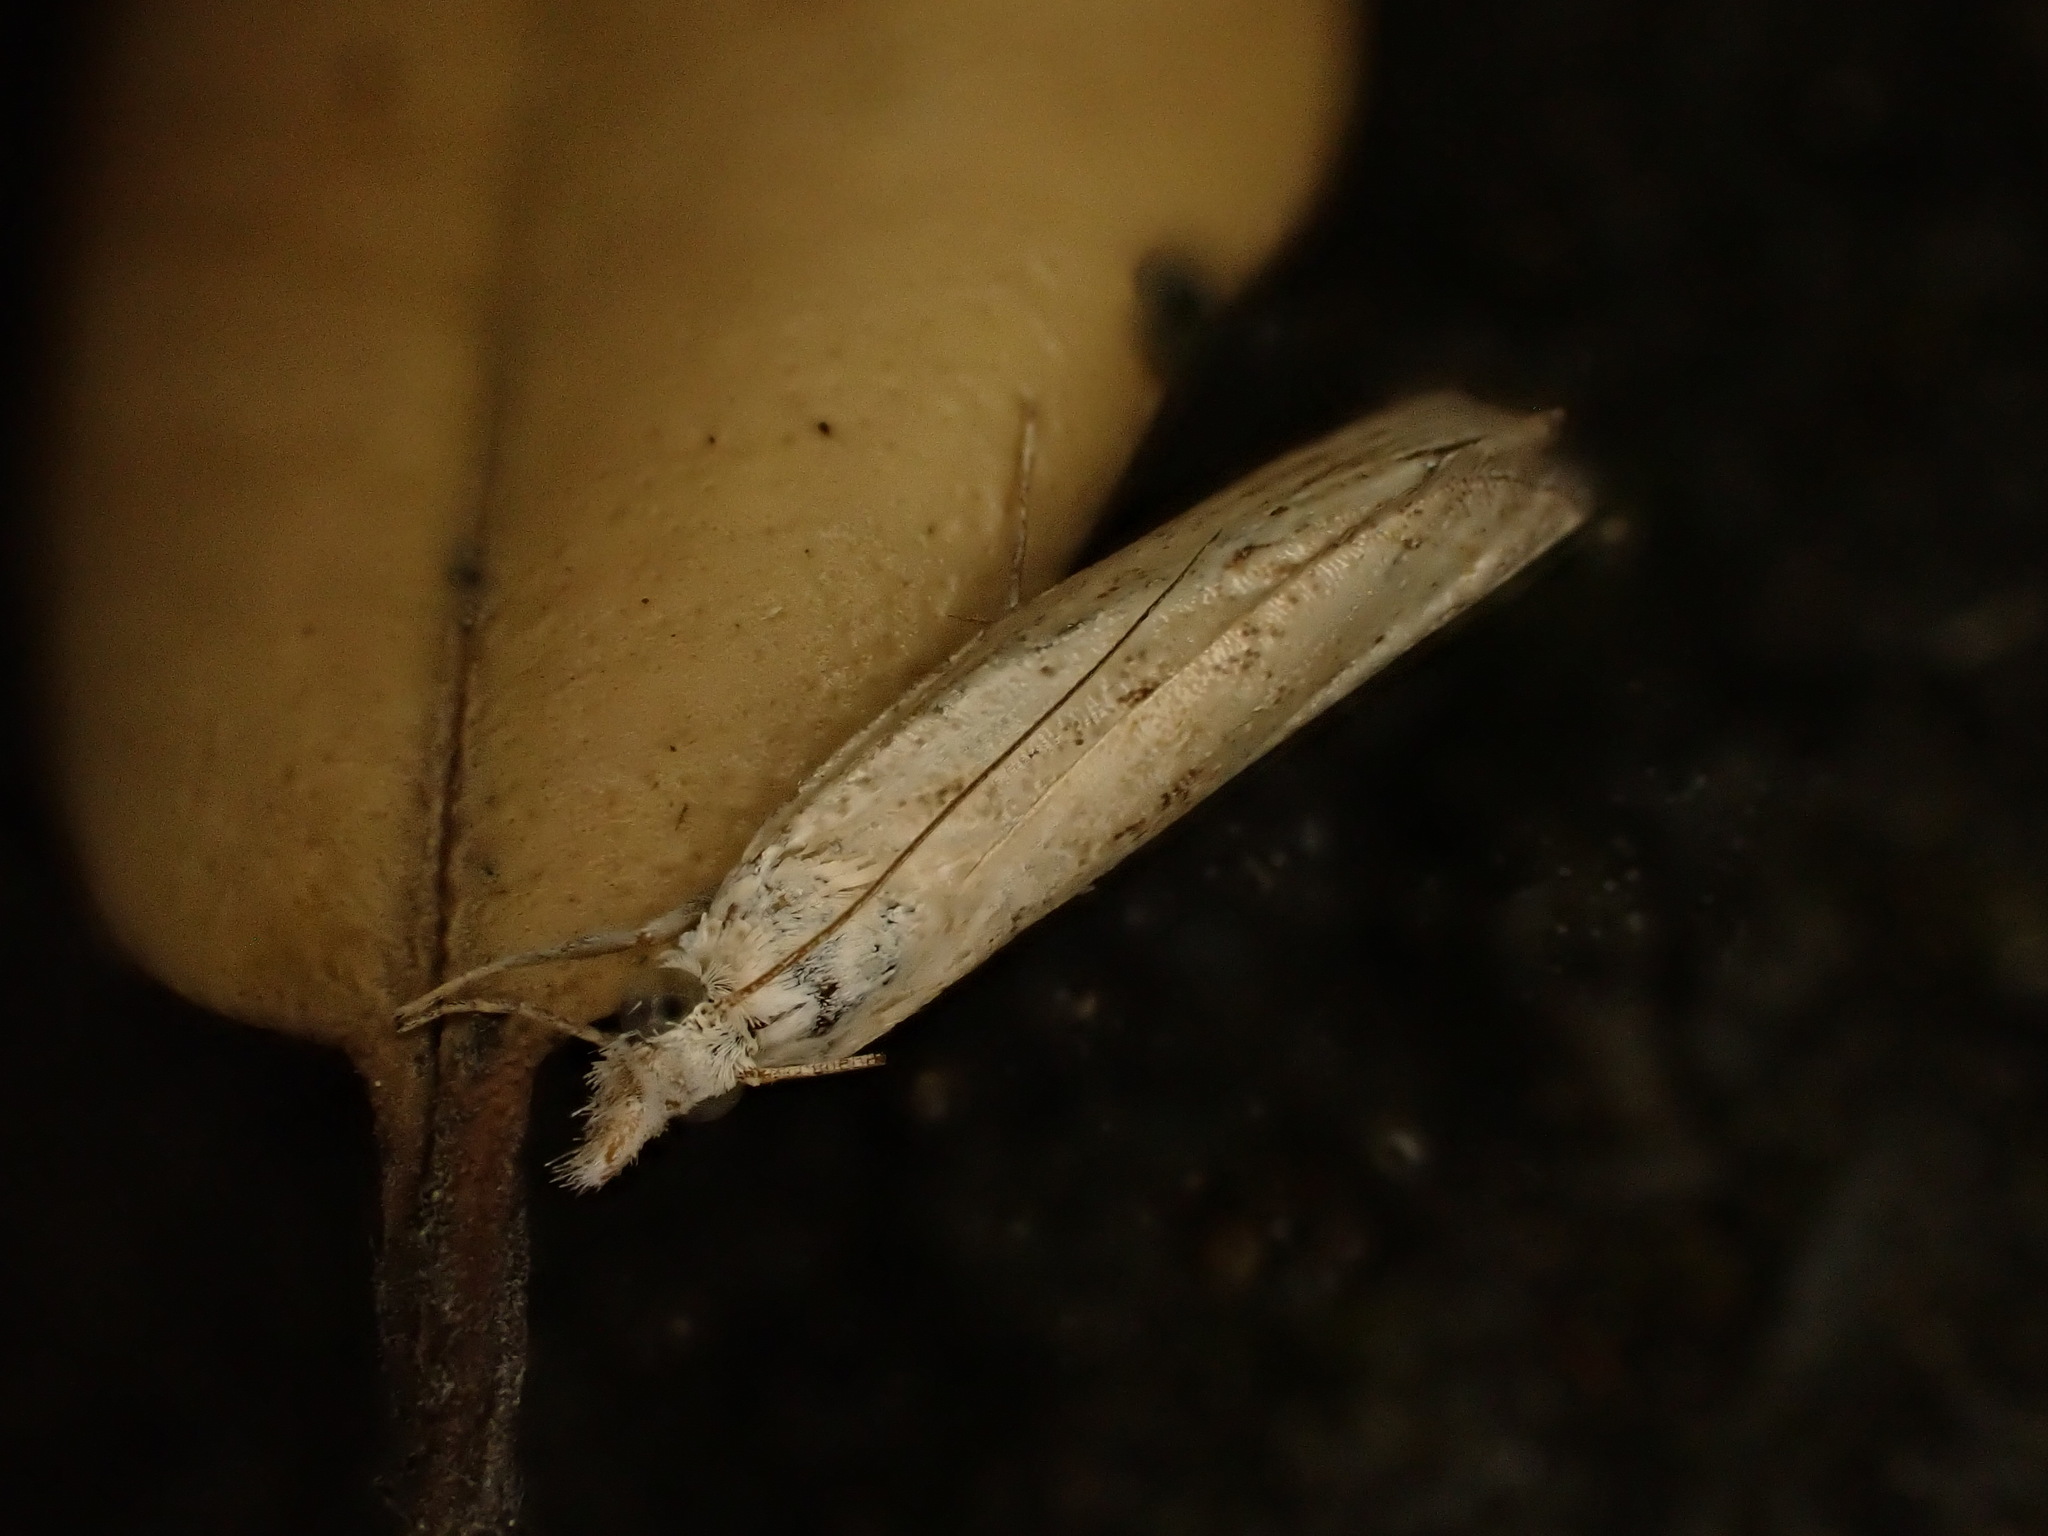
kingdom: Animalia
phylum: Arthropoda
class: Insecta
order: Lepidoptera
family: Crambidae
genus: Culladia
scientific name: Culladia cuneiferellus
